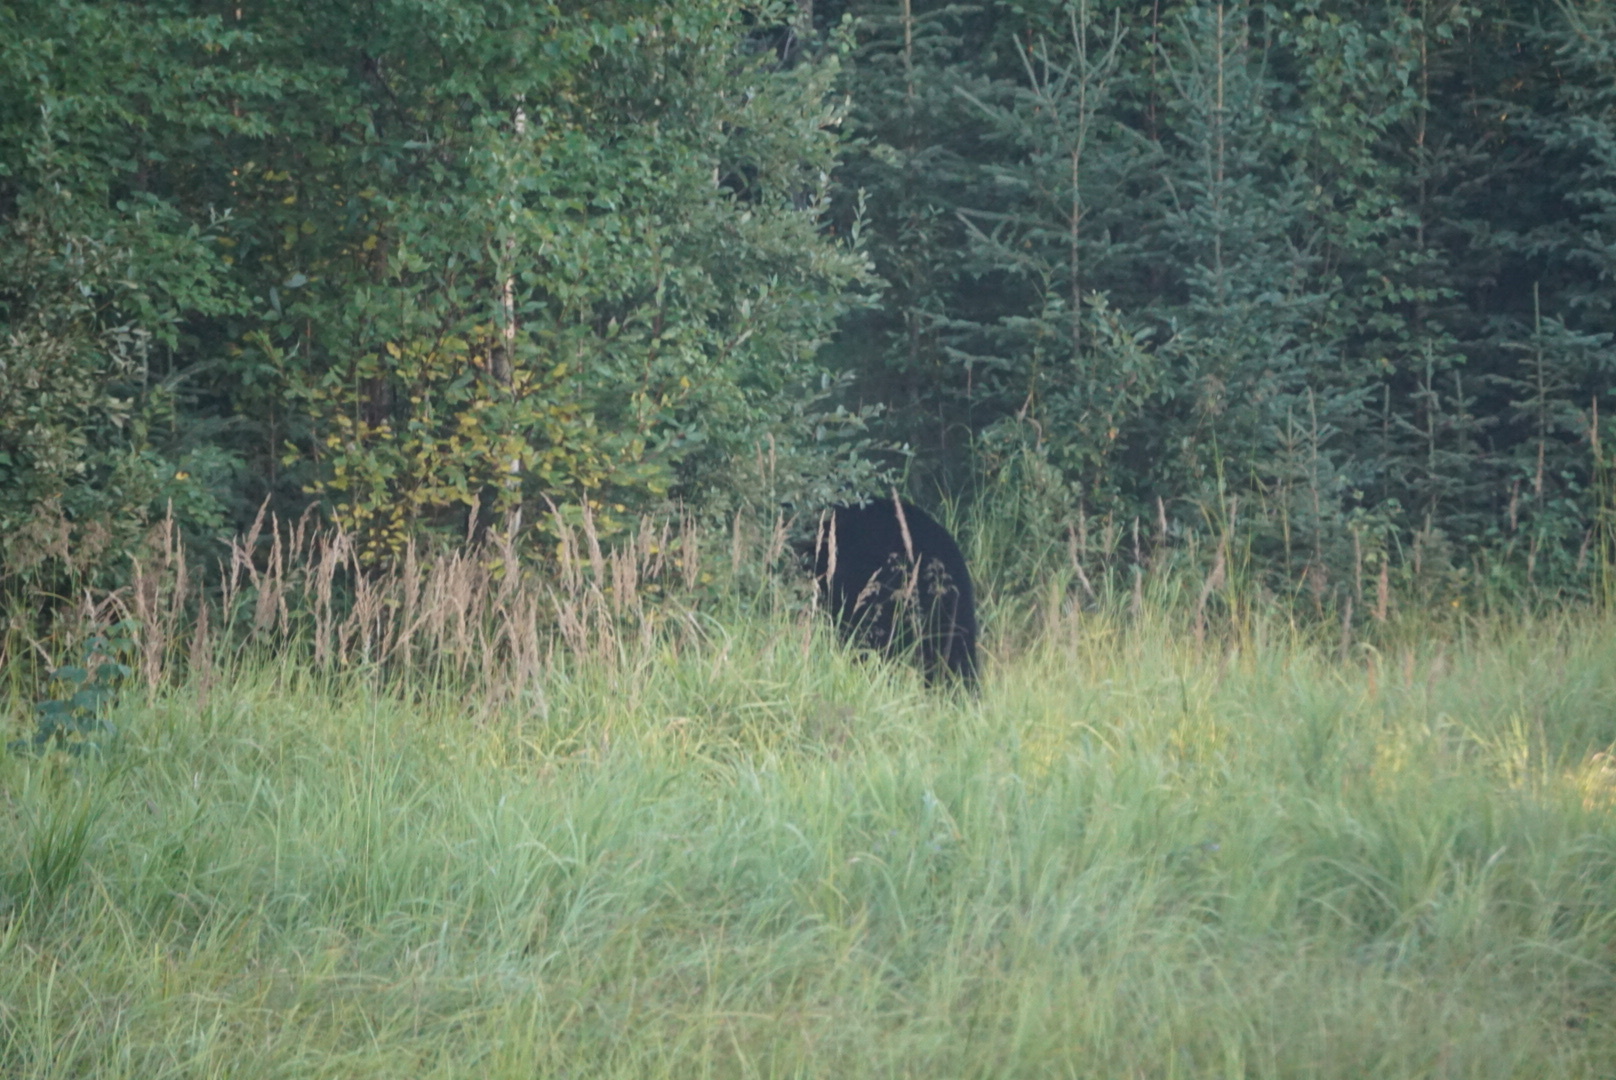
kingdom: Animalia
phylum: Chordata
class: Mammalia
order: Carnivora
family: Ursidae
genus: Ursus
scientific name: Ursus americanus
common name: American black bear
